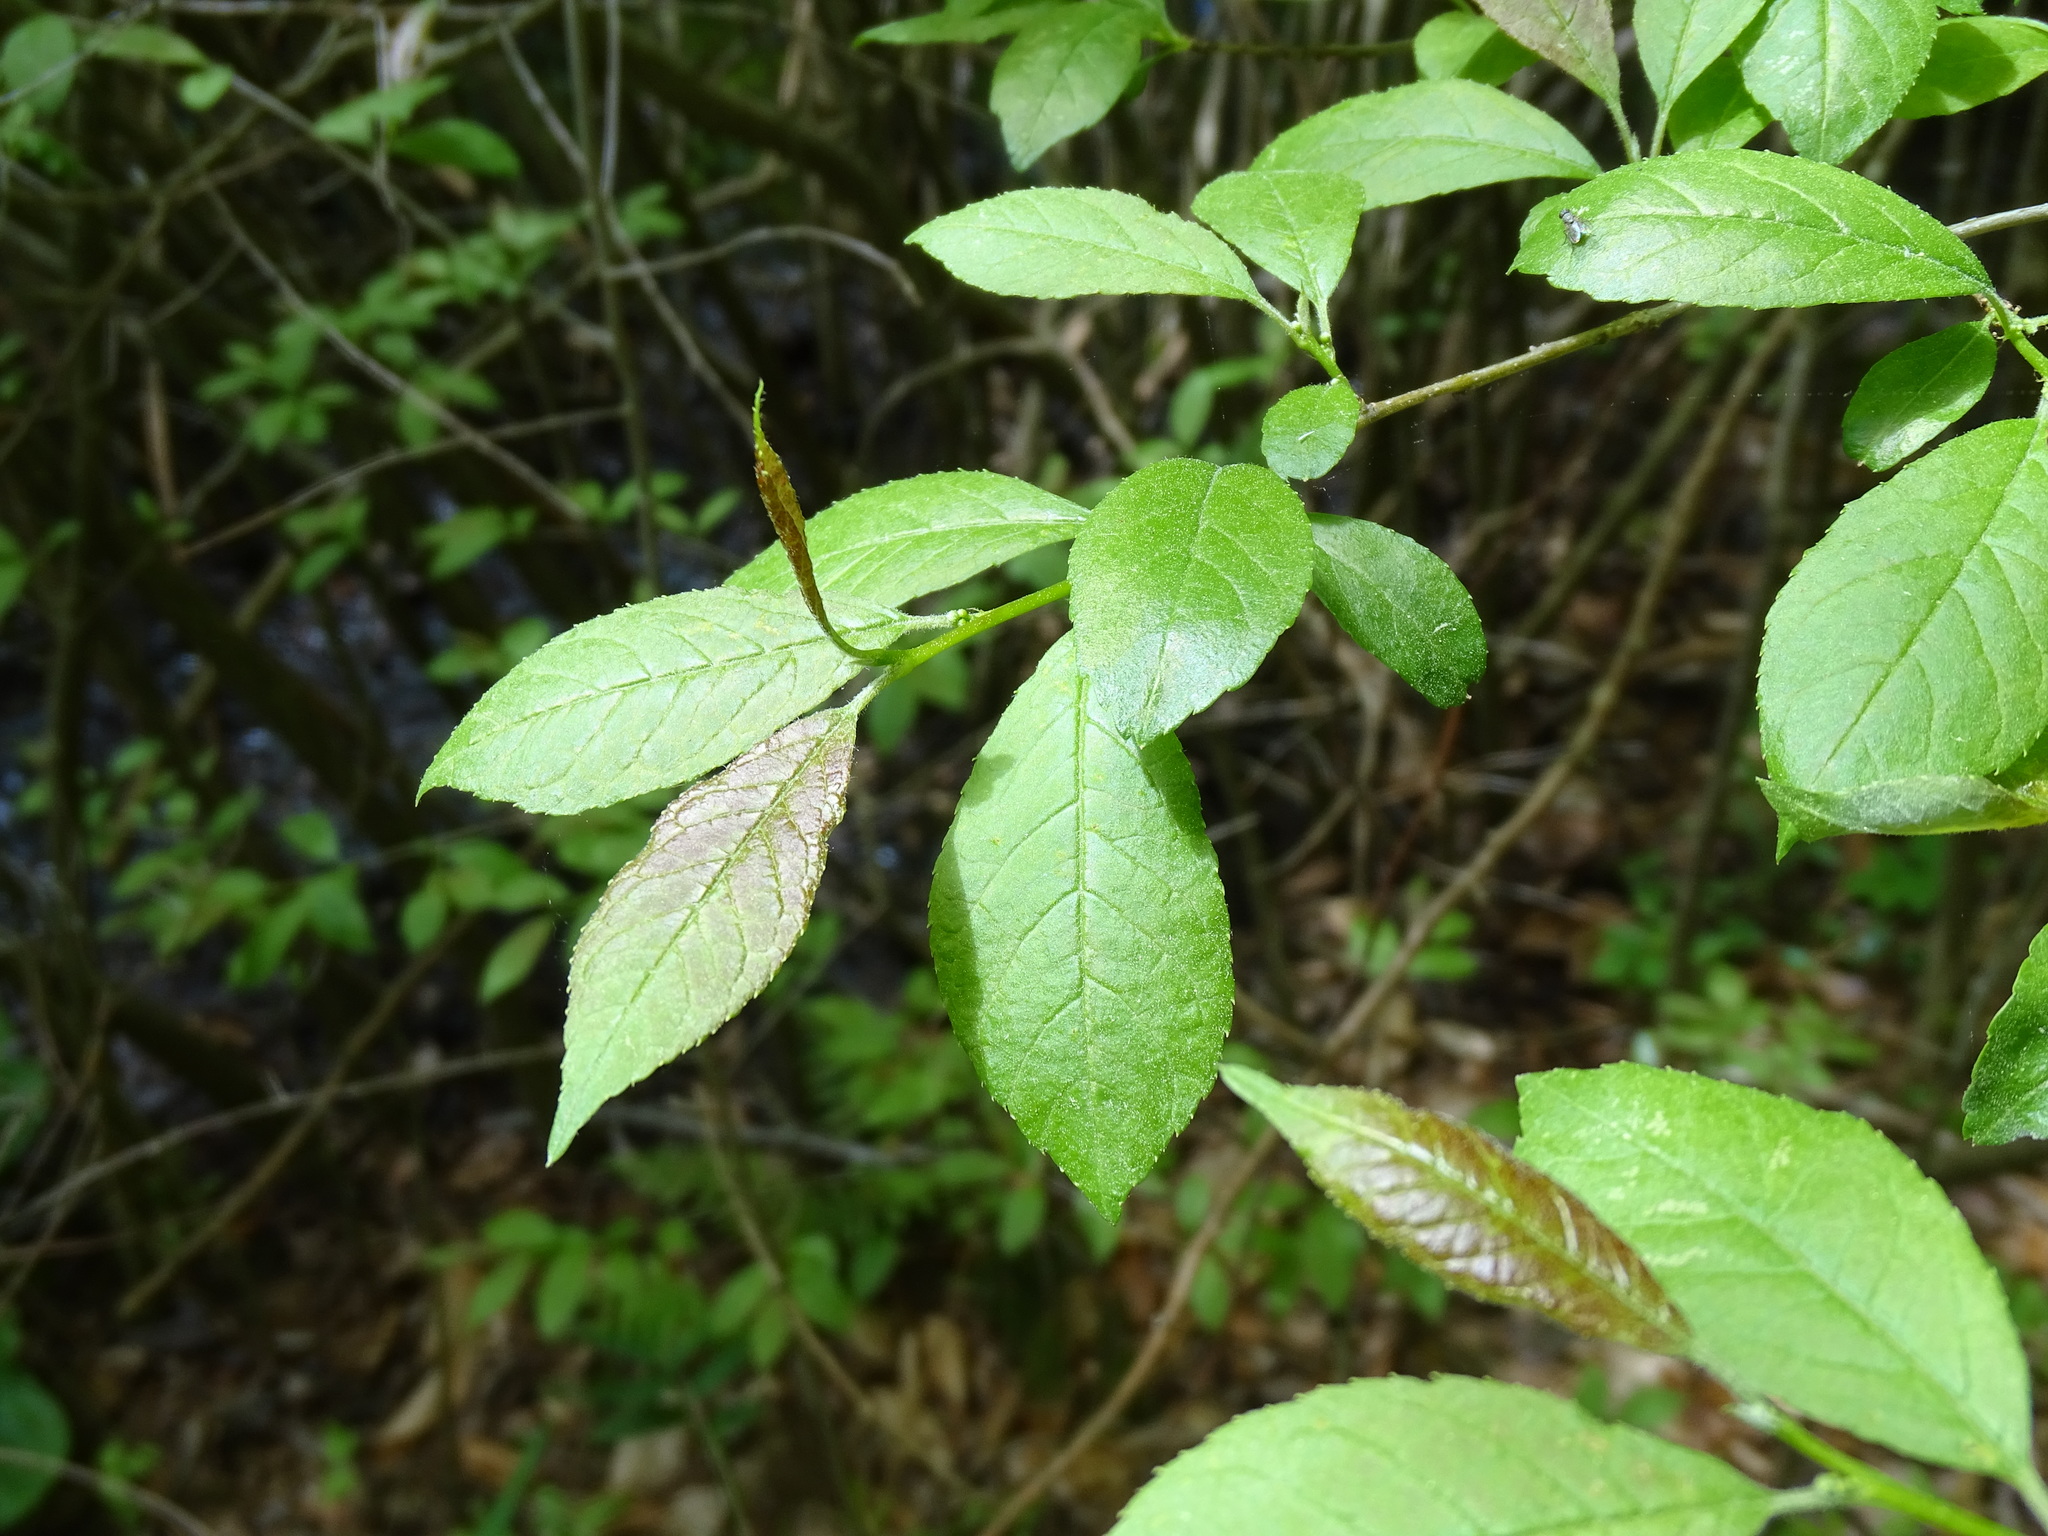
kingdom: Plantae
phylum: Tracheophyta
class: Magnoliopsida
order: Aquifoliales
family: Aquifoliaceae
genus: Ilex
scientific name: Ilex verticillata
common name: Virginia winterberry
